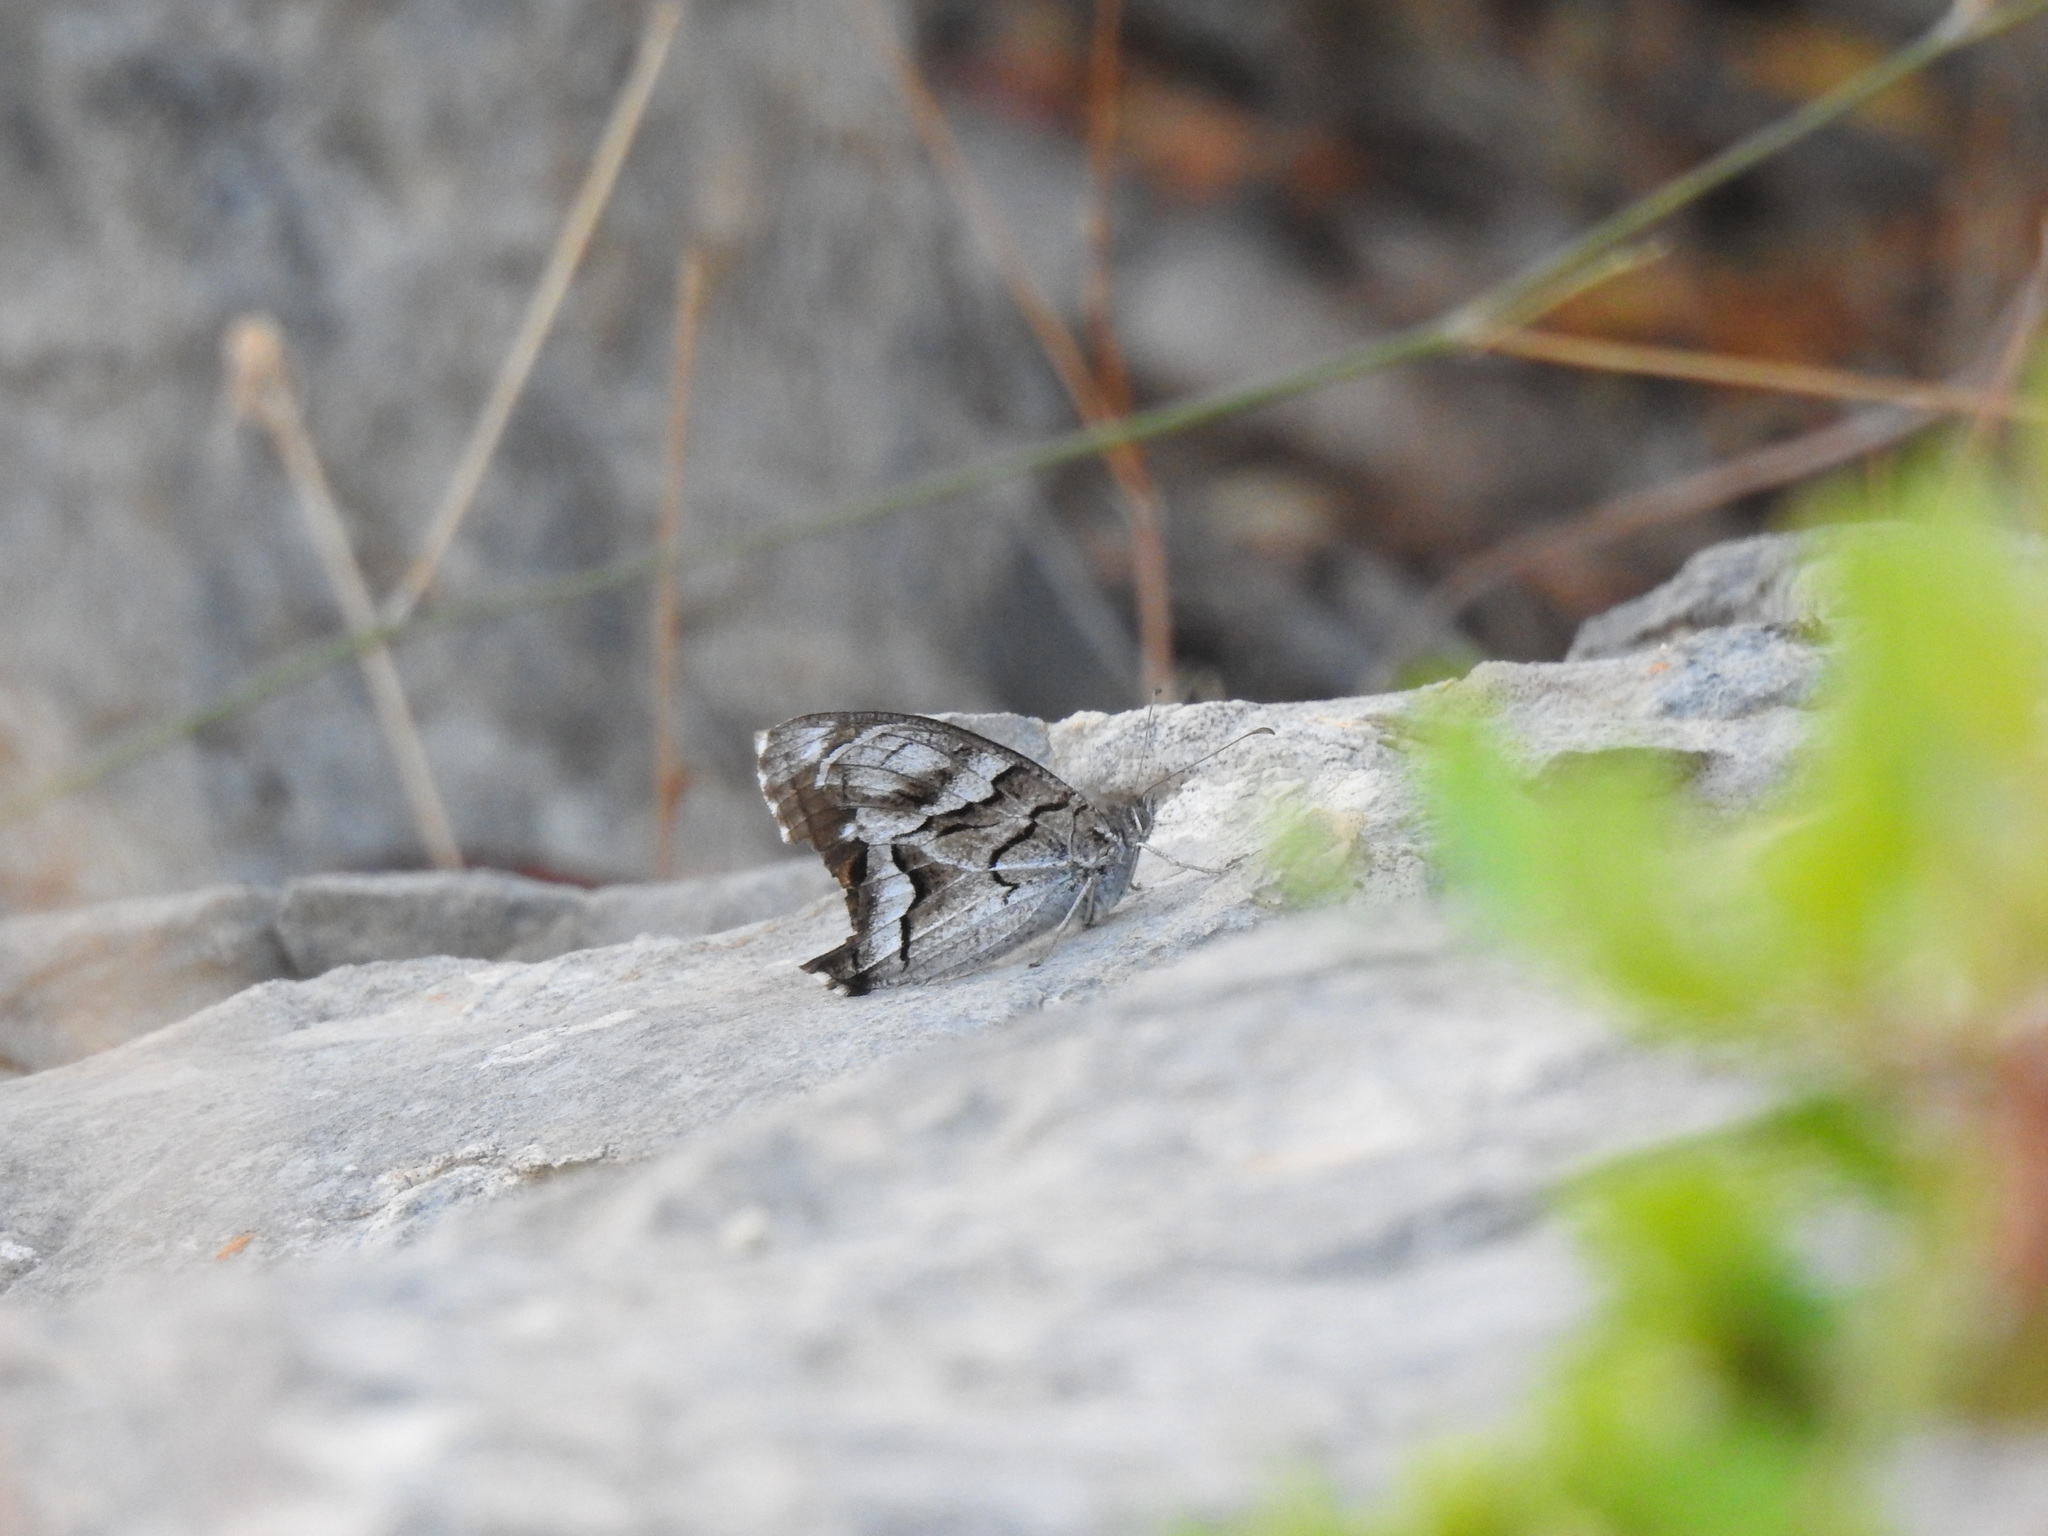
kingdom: Animalia
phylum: Arthropoda
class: Insecta
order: Lepidoptera
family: Nymphalidae
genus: Hipparchia
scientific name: Hipparchia fidia
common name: Striped grayling
